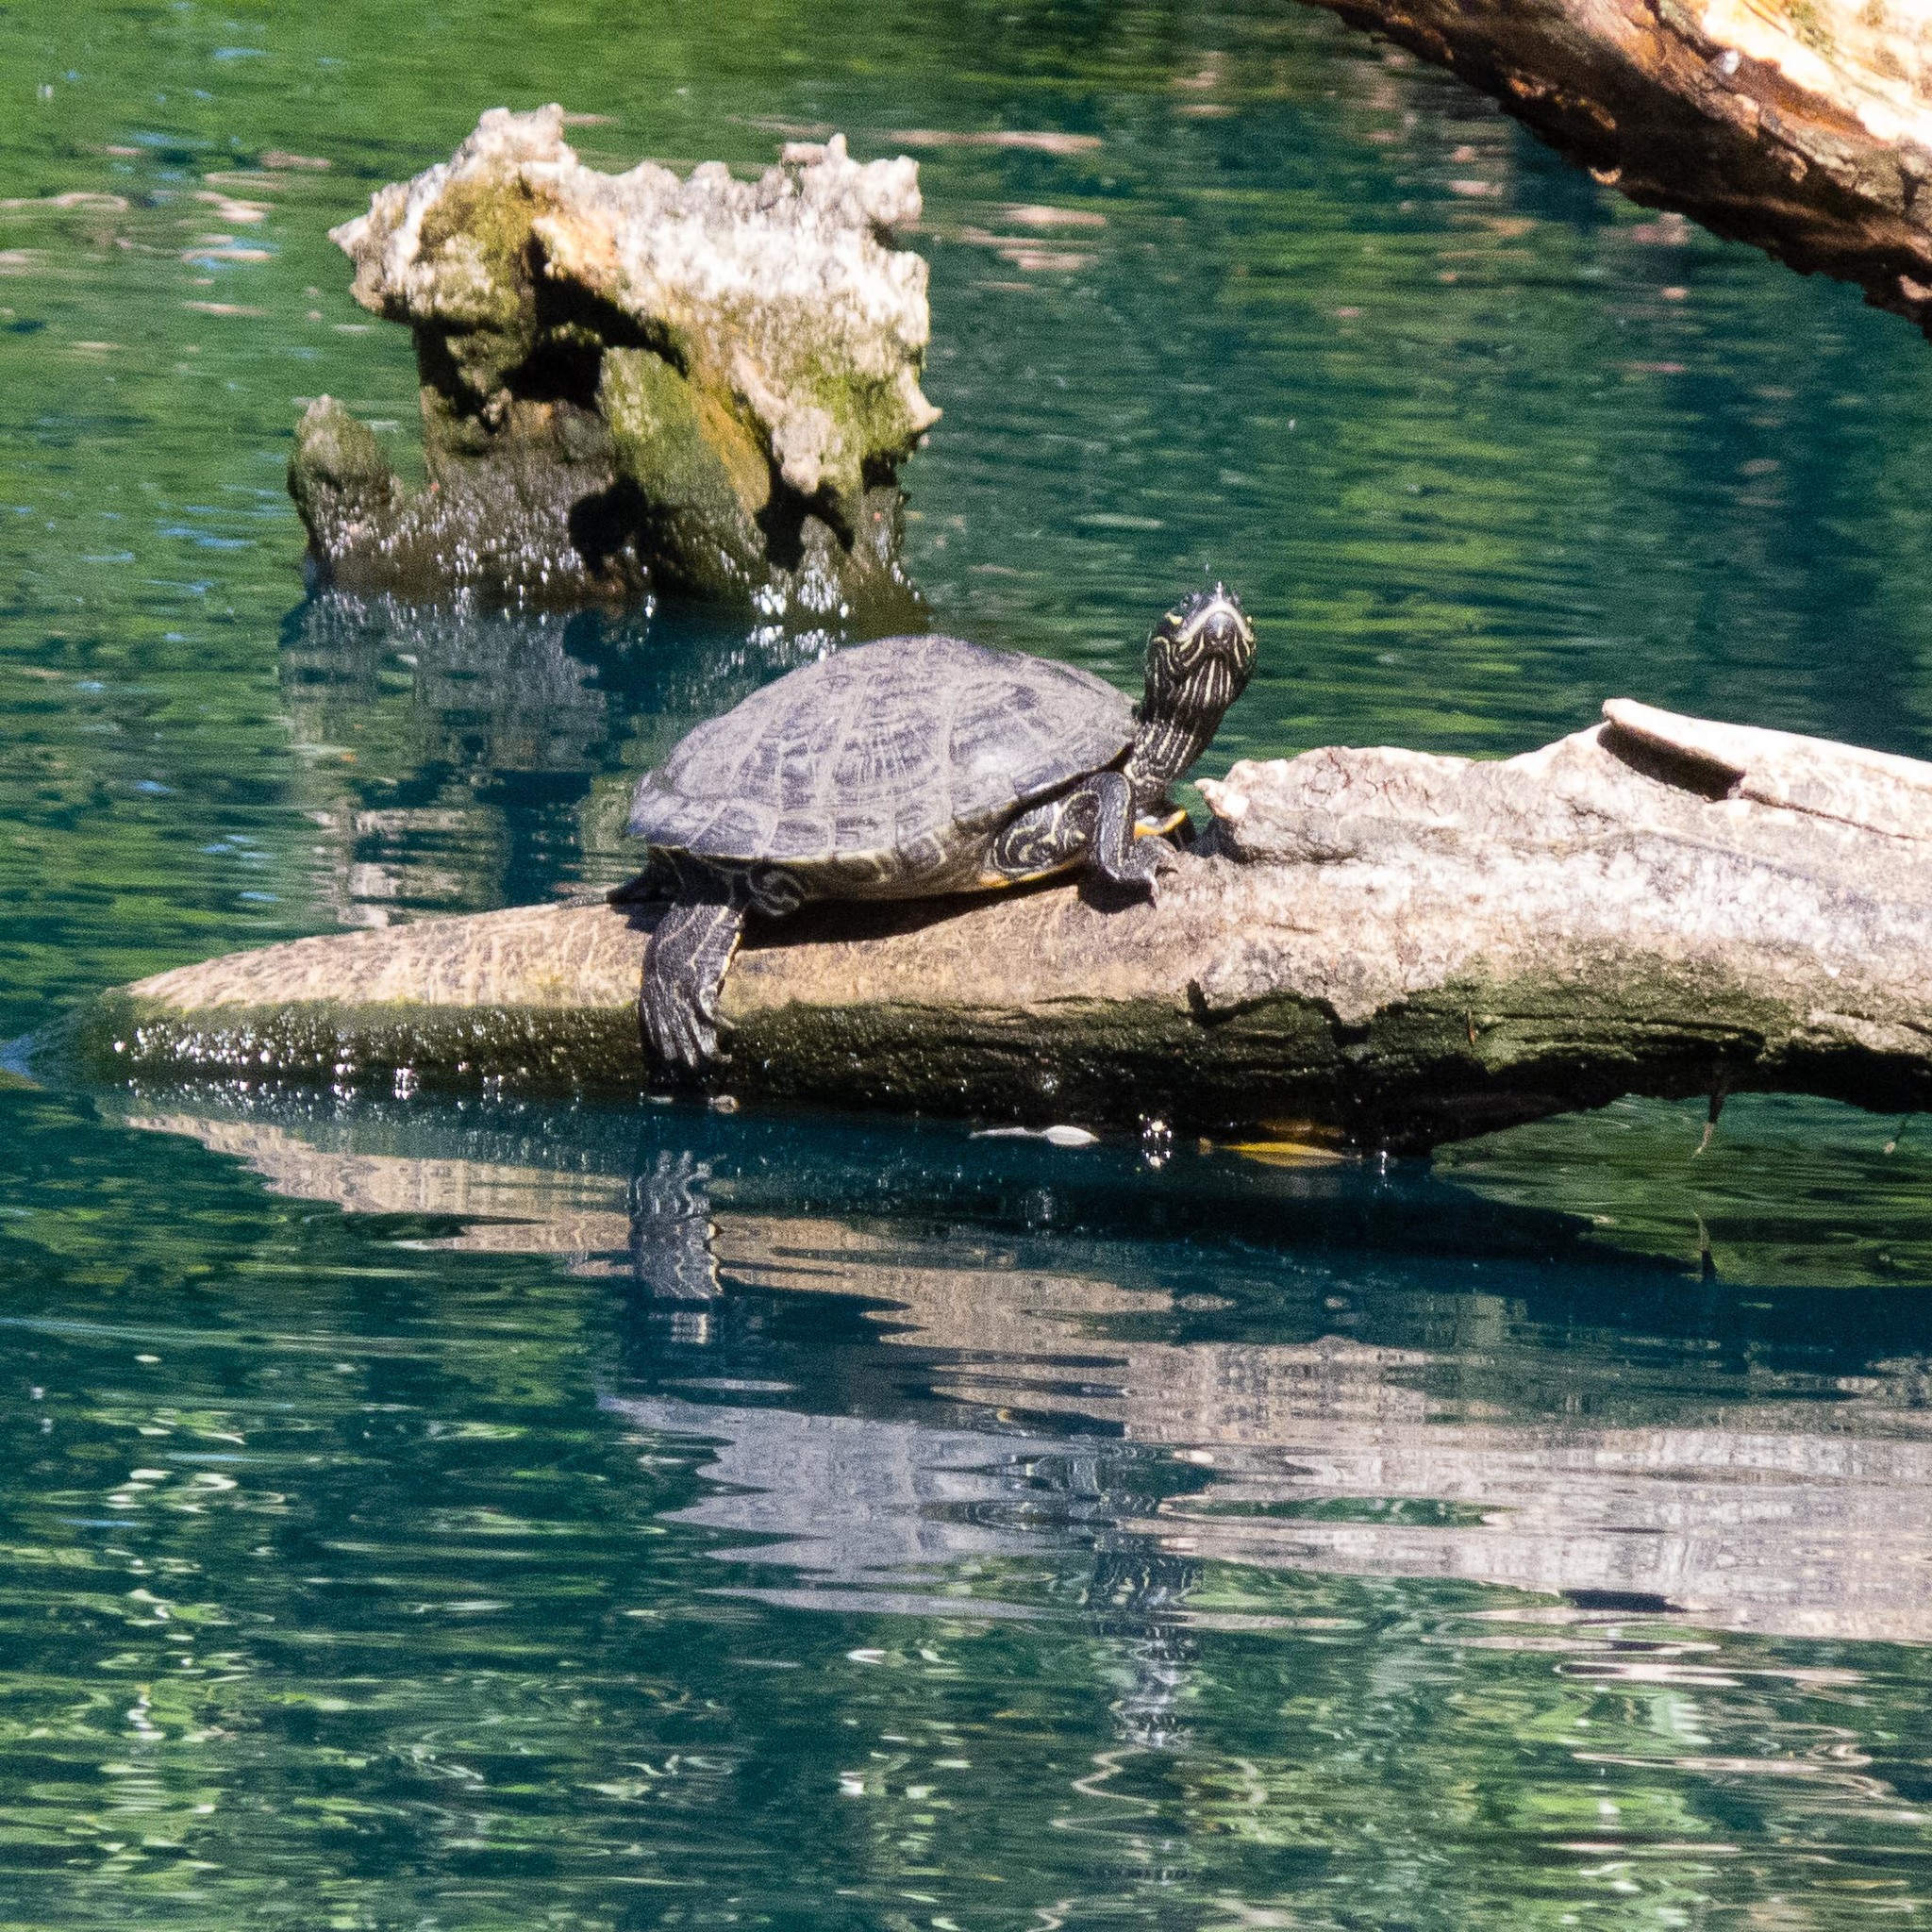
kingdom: Animalia
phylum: Chordata
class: Testudines
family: Emydidae
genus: Graptemys
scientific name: Graptemys pseudogeographica
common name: False map turtle
